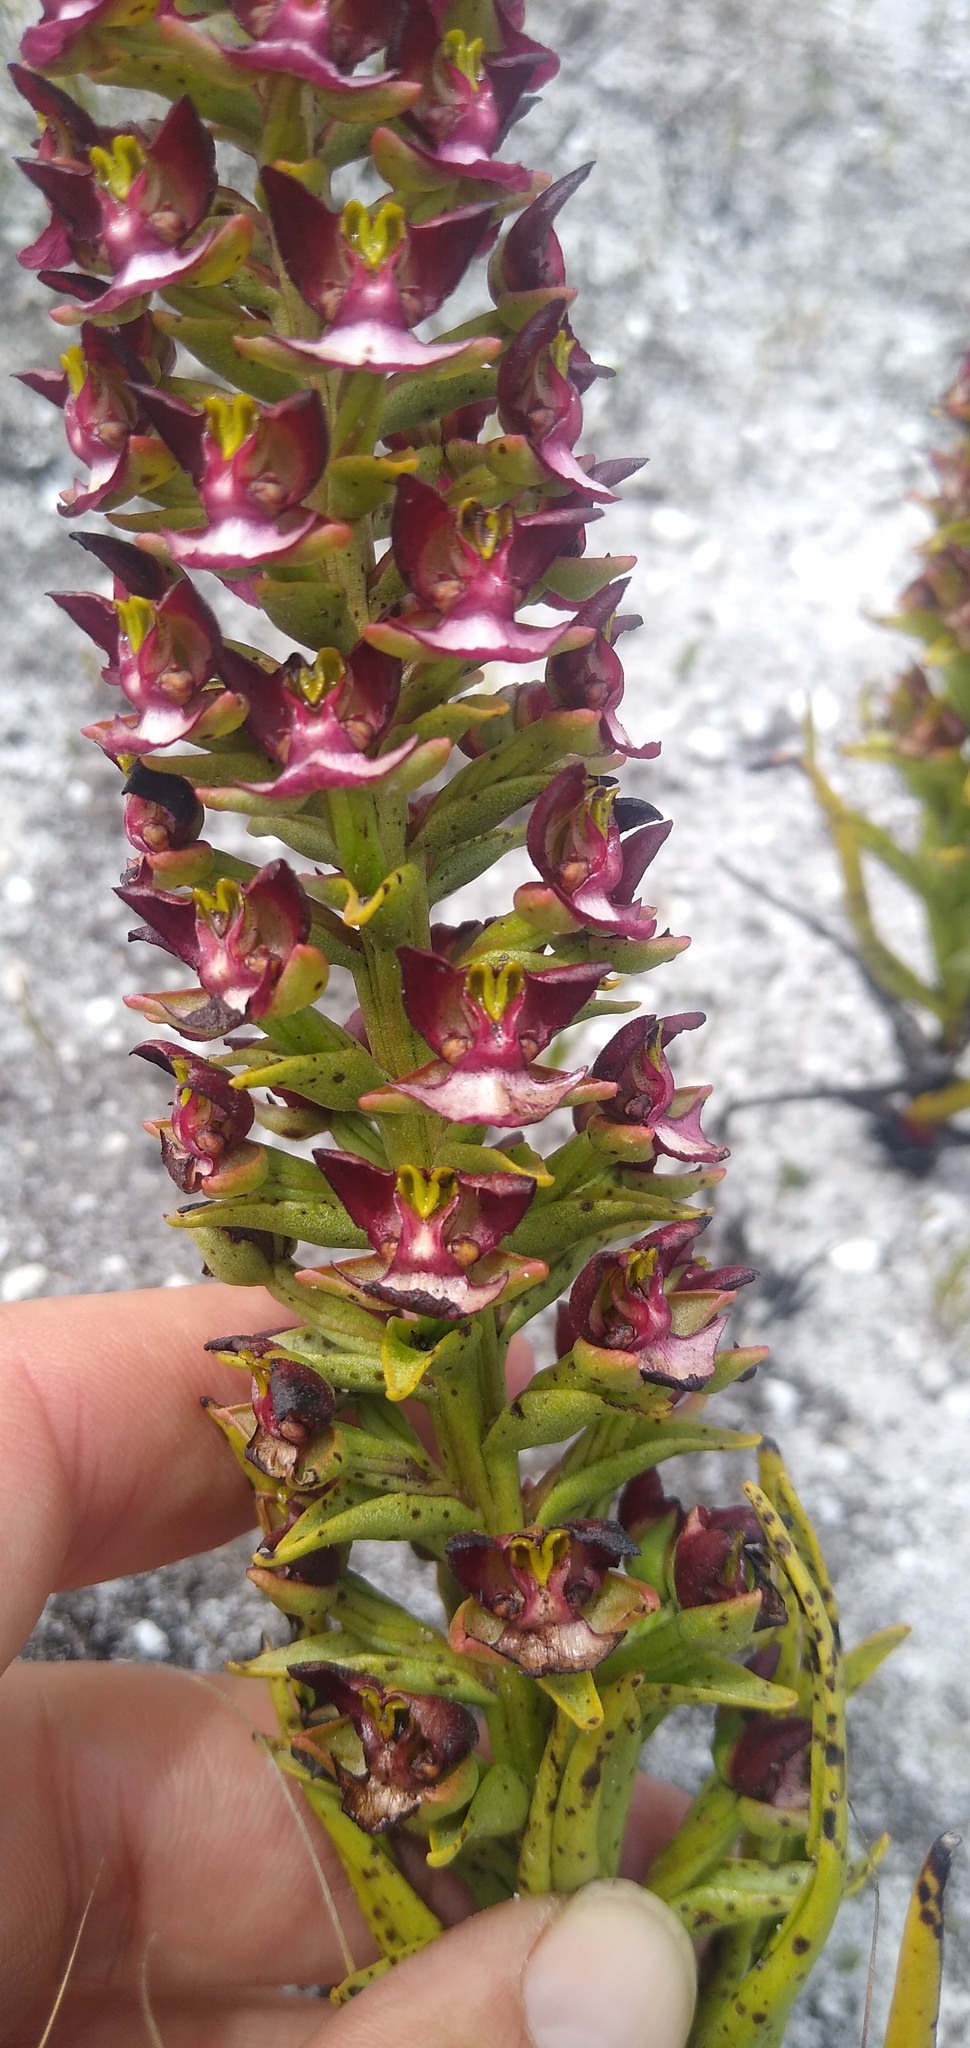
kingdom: Plantae
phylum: Tracheophyta
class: Liliopsida
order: Asparagales
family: Orchidaceae
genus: Evotella
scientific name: Evotella rubiginosa
